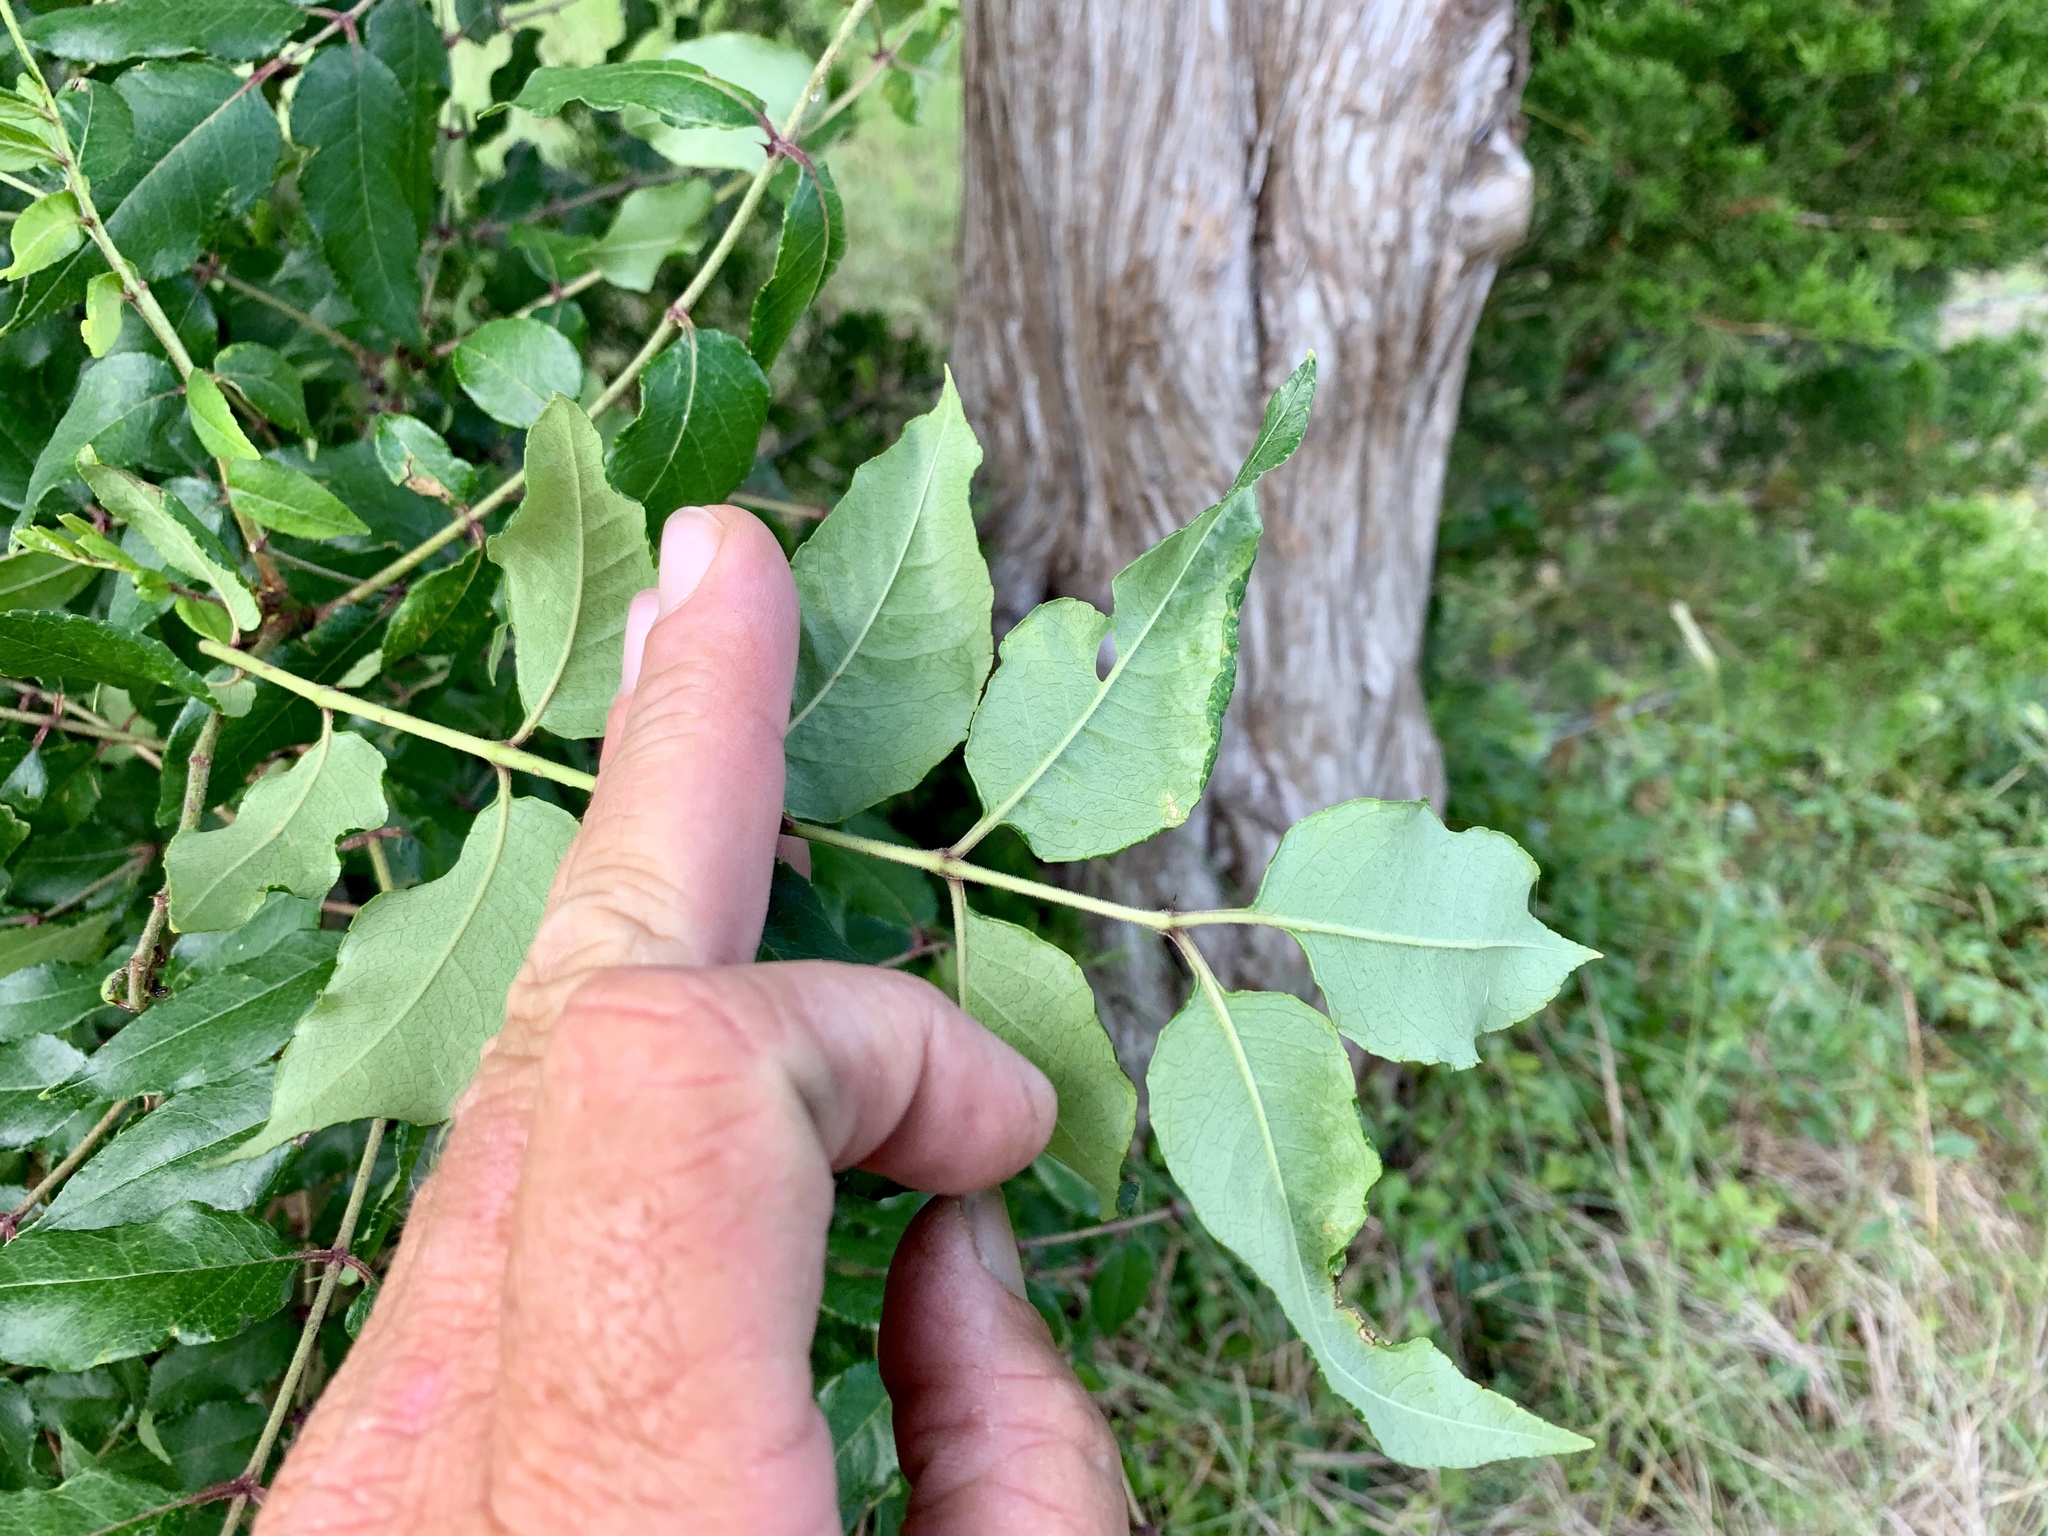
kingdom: Plantae
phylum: Tracheophyta
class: Magnoliopsida
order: Sapindales
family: Rutaceae
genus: Zanthoxylum
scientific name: Zanthoxylum clava-herculis
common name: Hercules'-club
